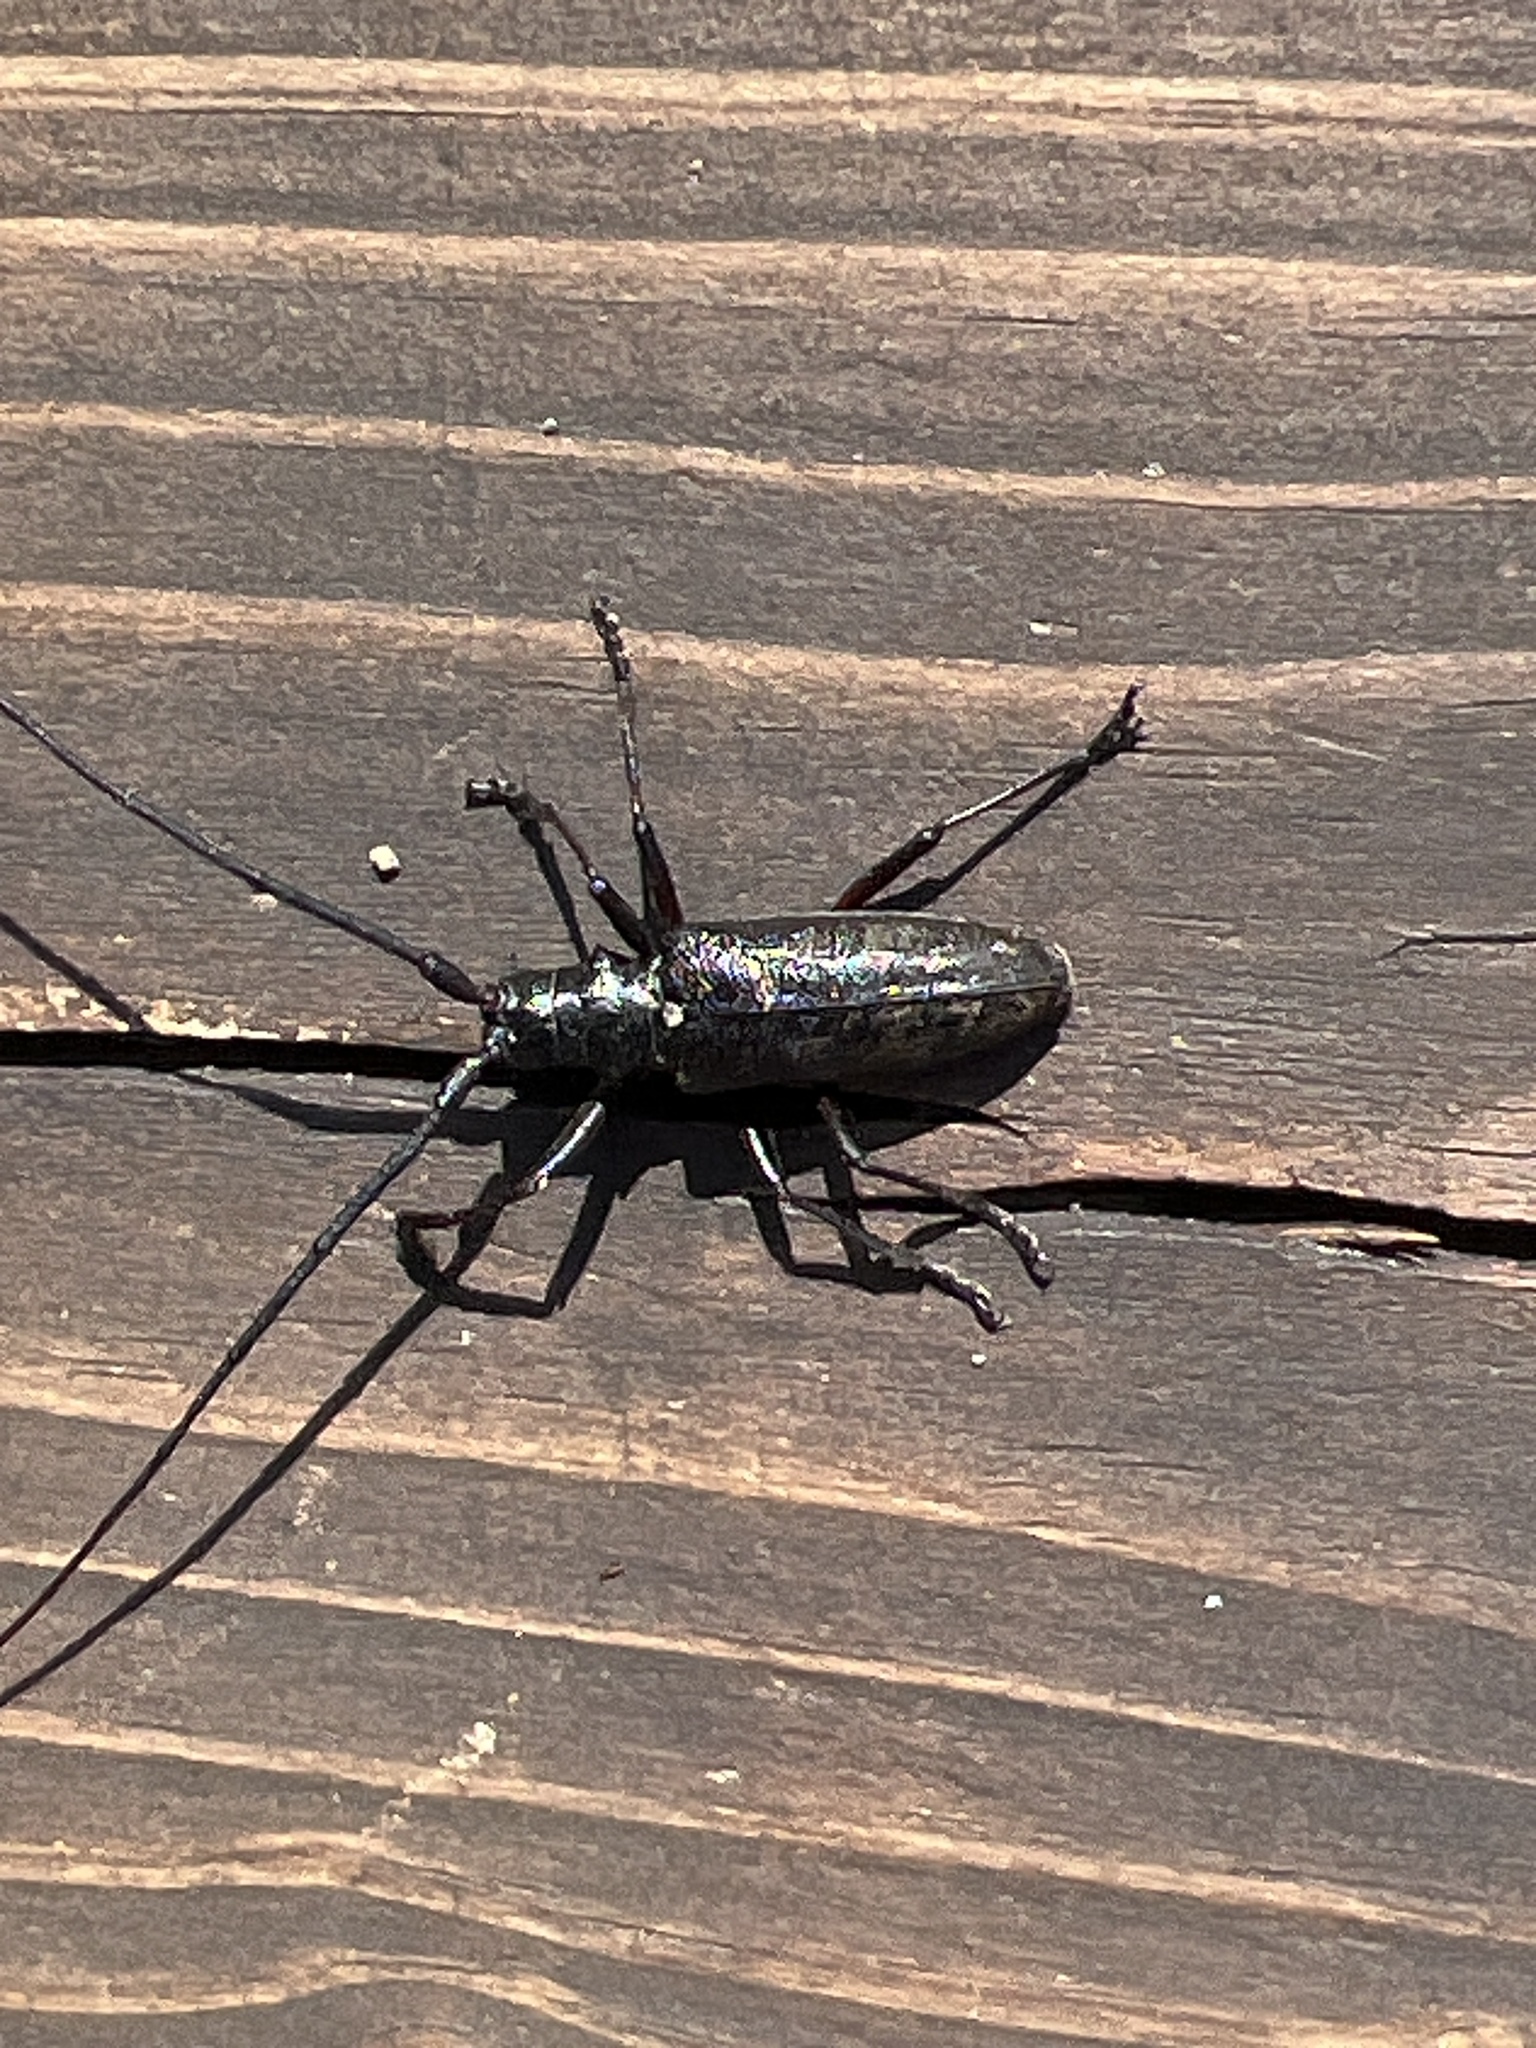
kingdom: Animalia
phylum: Arthropoda
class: Insecta
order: Coleoptera
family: Cerambycidae
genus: Monochamus
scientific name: Monochamus scutellatus
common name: White-spotted sawyer beetle
